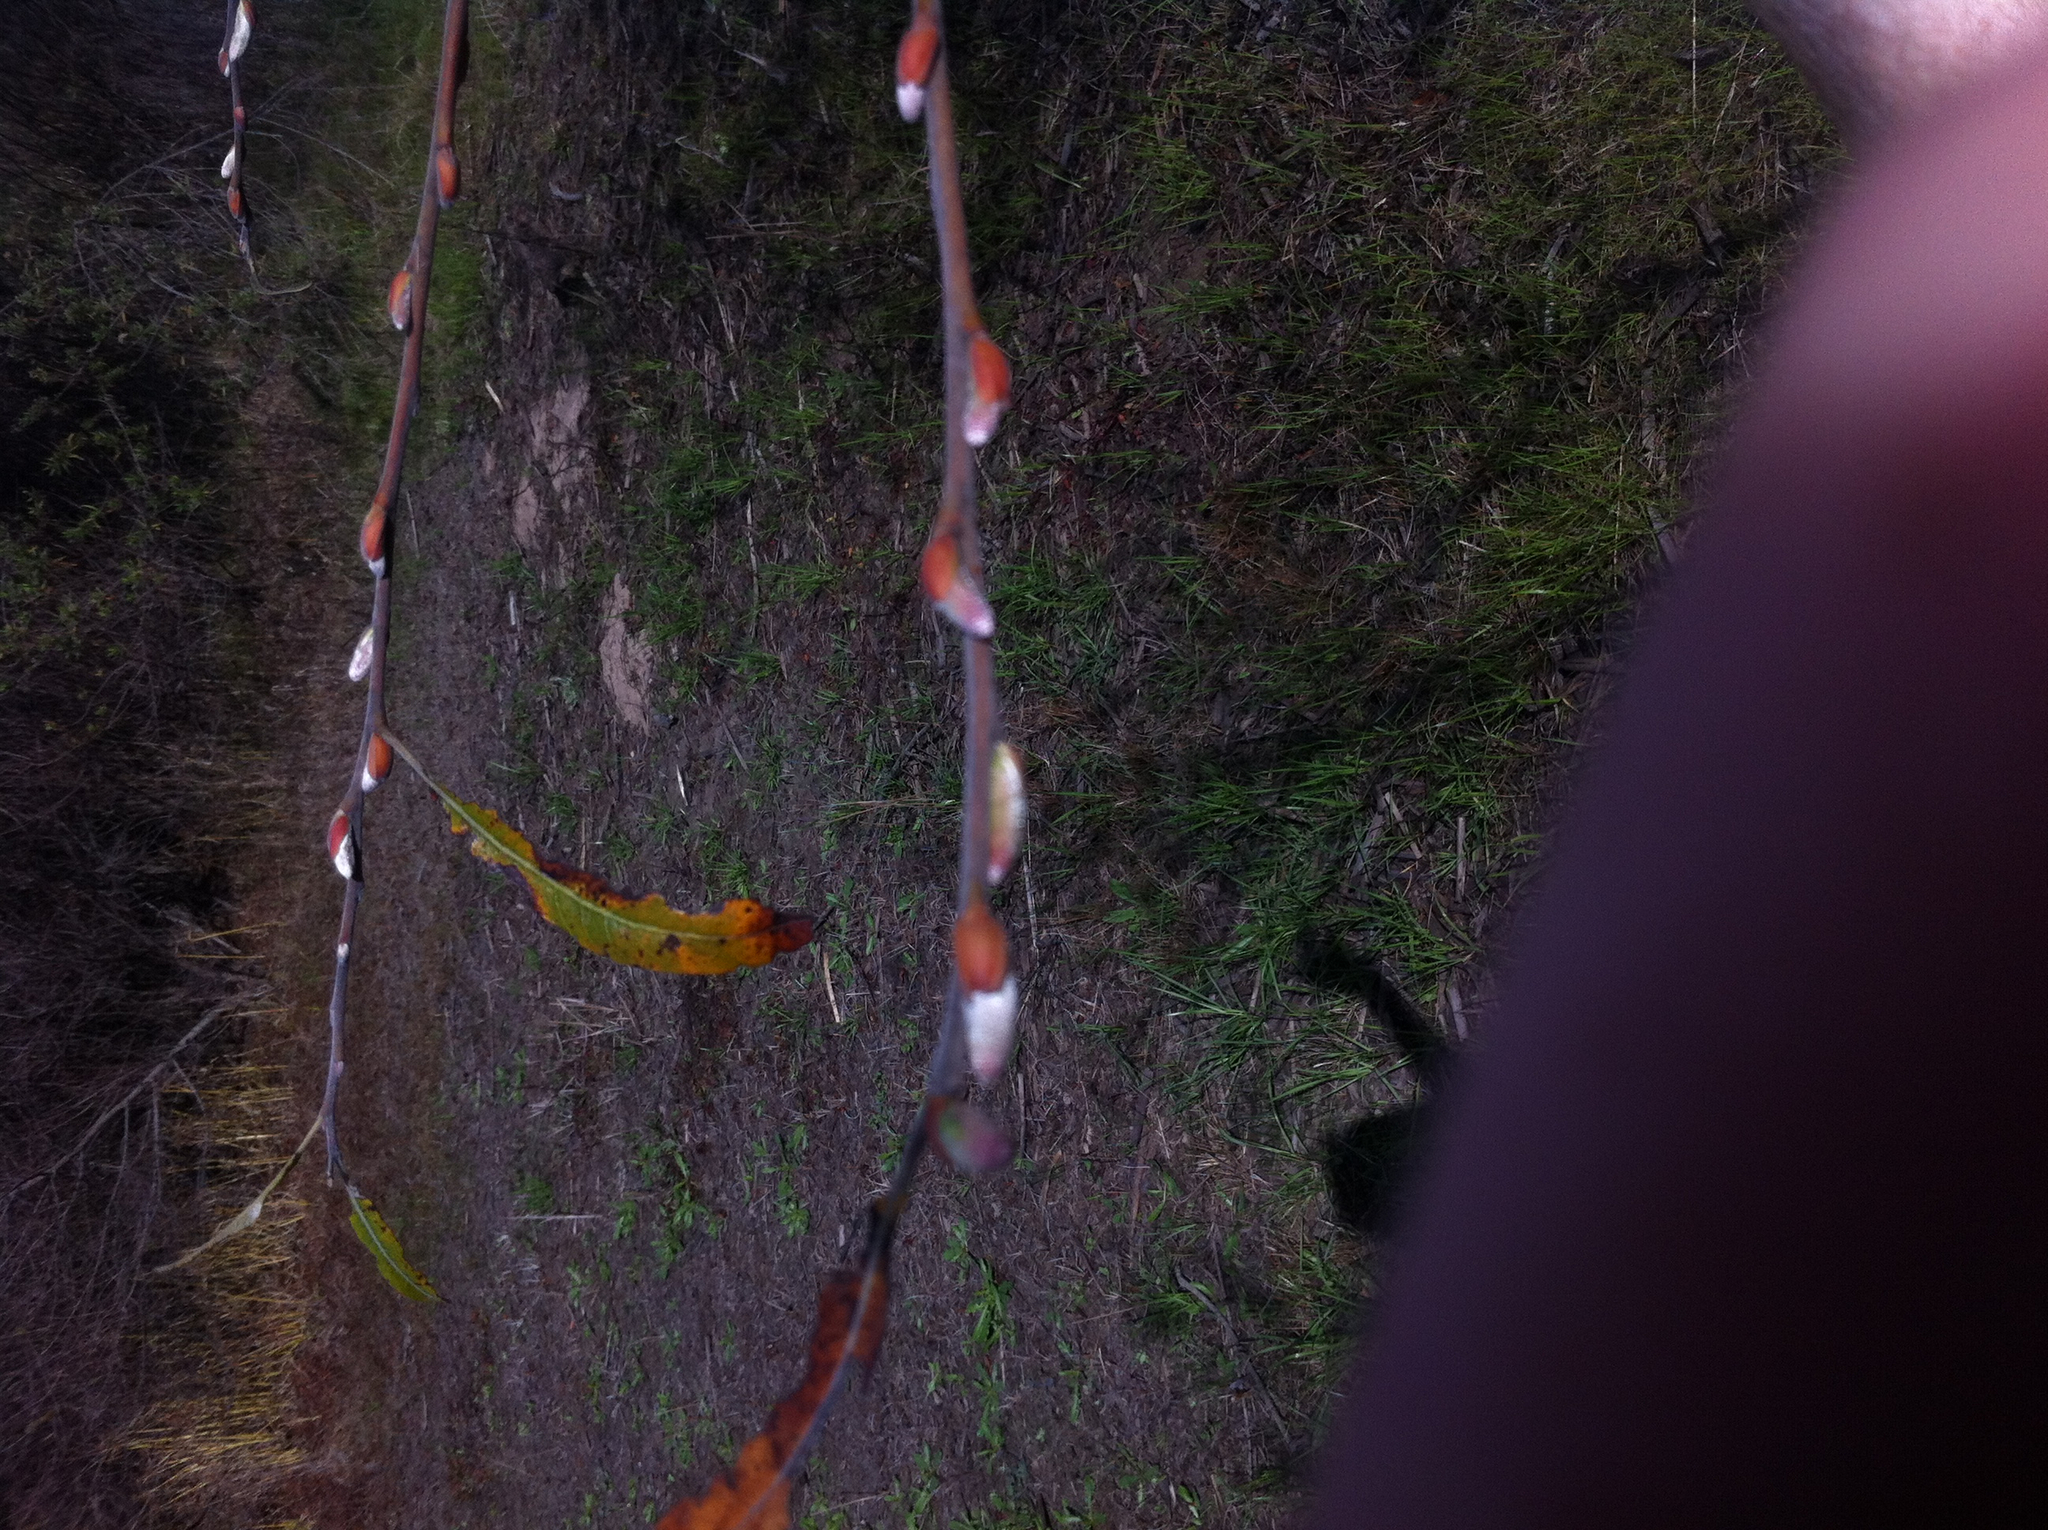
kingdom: Plantae
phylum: Tracheophyta
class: Magnoliopsida
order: Malpighiales
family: Salicaceae
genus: Salix
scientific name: Salix lasiolepis
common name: Arroyo willow
